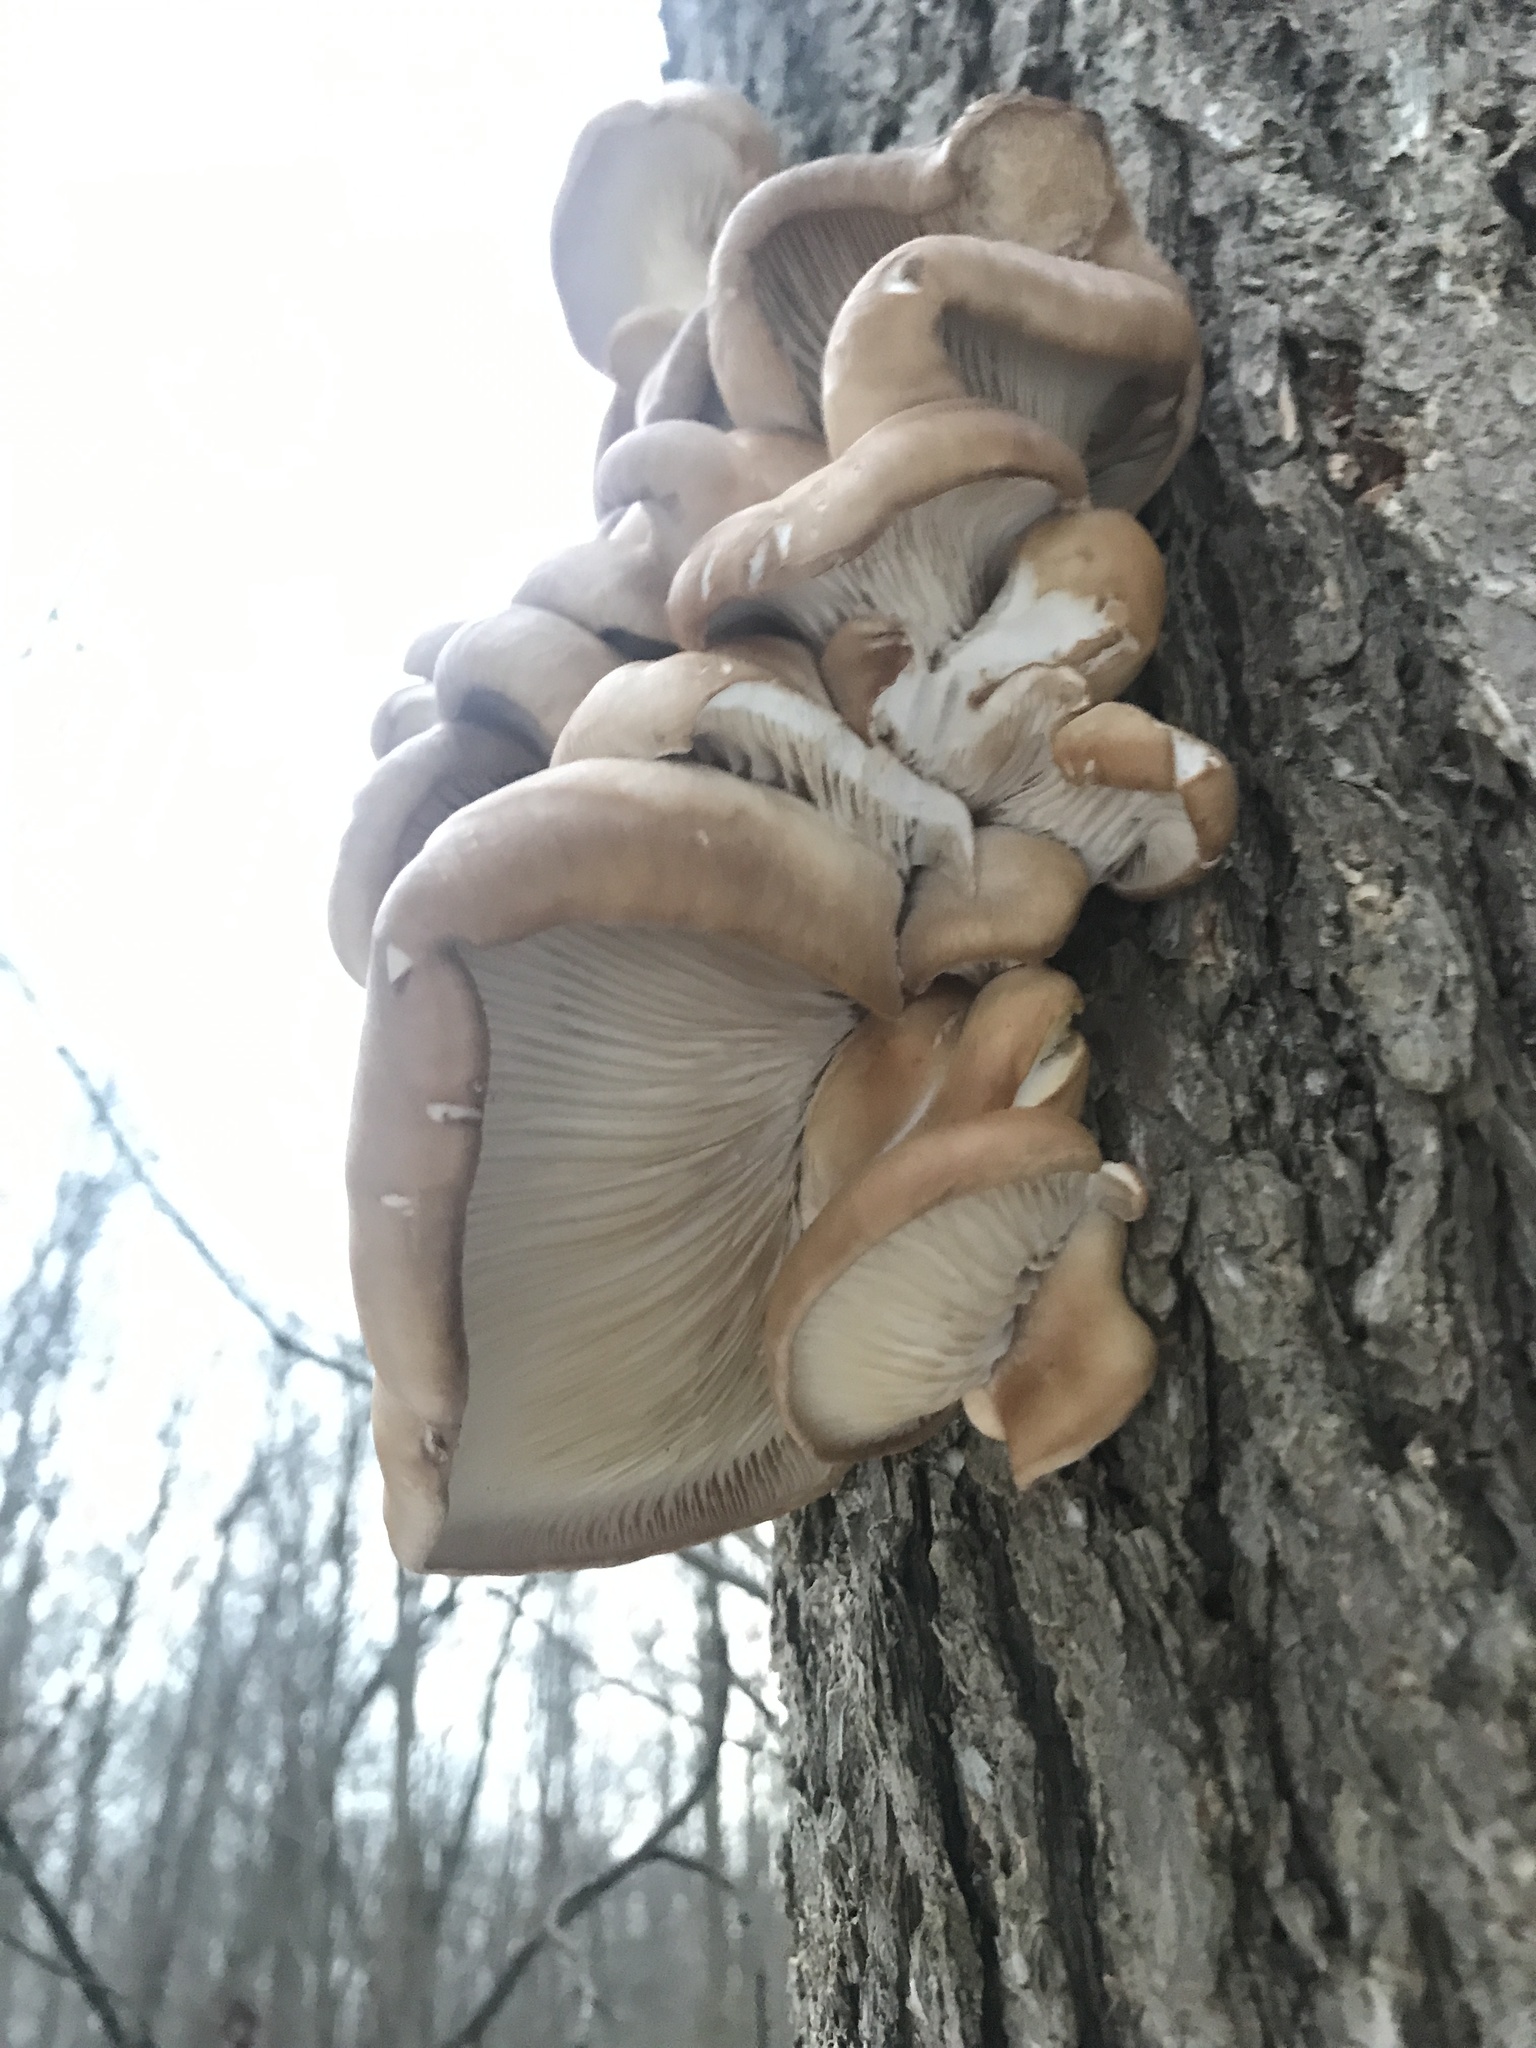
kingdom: Fungi
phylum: Basidiomycota
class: Agaricomycetes
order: Agaricales
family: Pleurotaceae
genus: Pleurotus
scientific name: Pleurotus ostreatus
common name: Oyster mushroom
